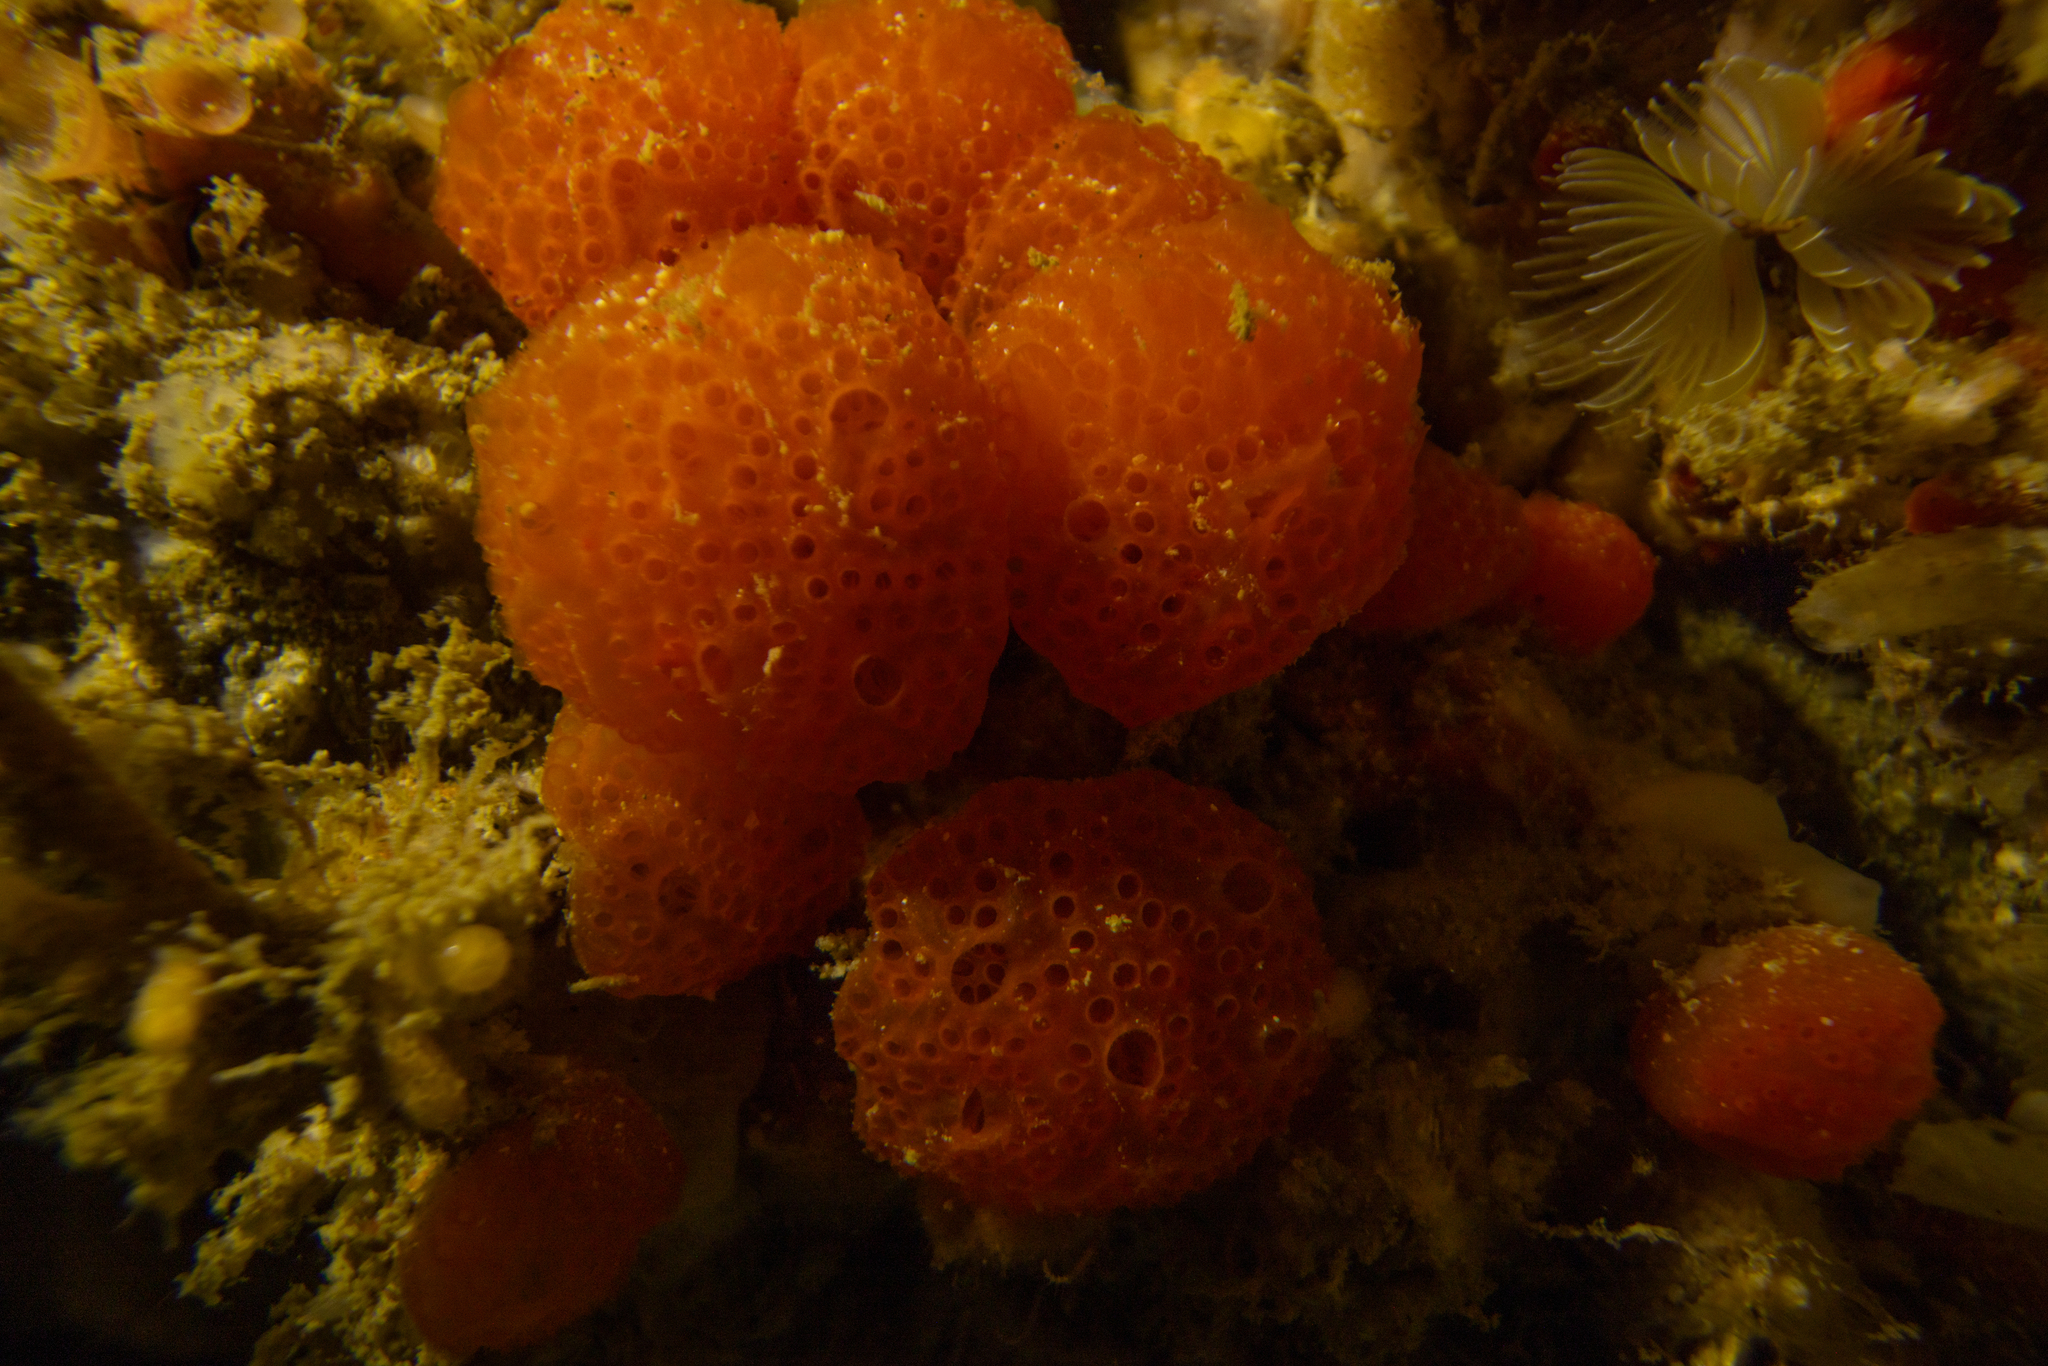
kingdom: Animalia
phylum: Chordata
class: Ascidiacea
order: Aplousobranchia
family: Polyclinidae
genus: Synoicum
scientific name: Synoicum kuranui
